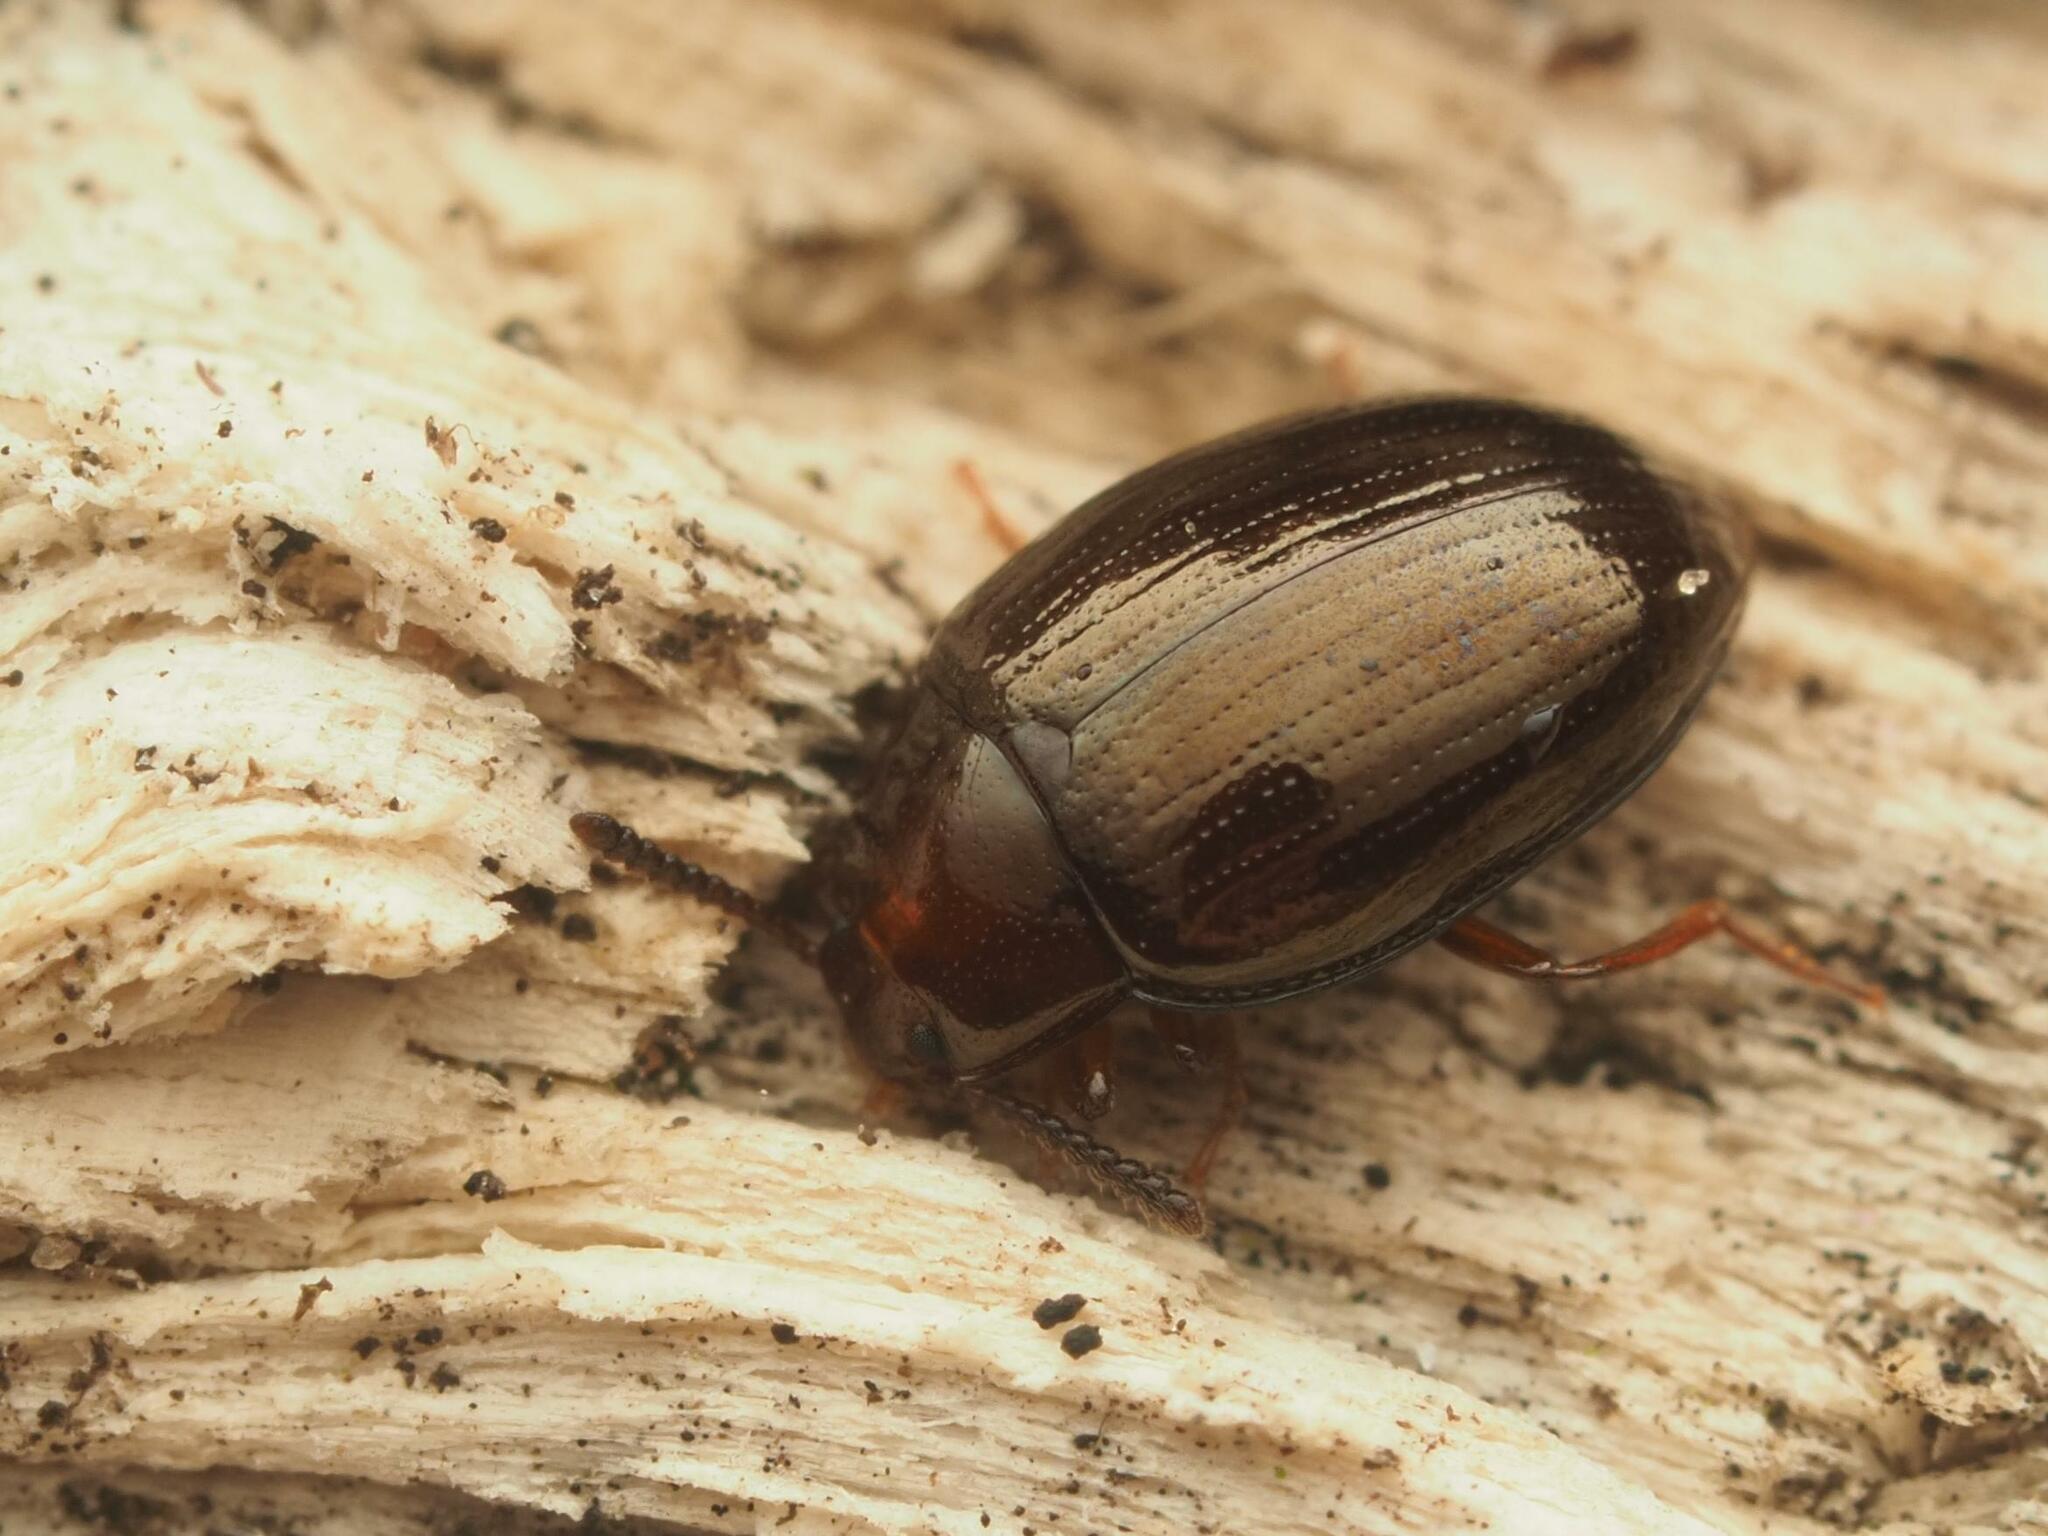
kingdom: Animalia
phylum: Arthropoda
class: Insecta
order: Coleoptera
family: Tenebrionidae
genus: Blapstinus
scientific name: Blapstinus metallicus
